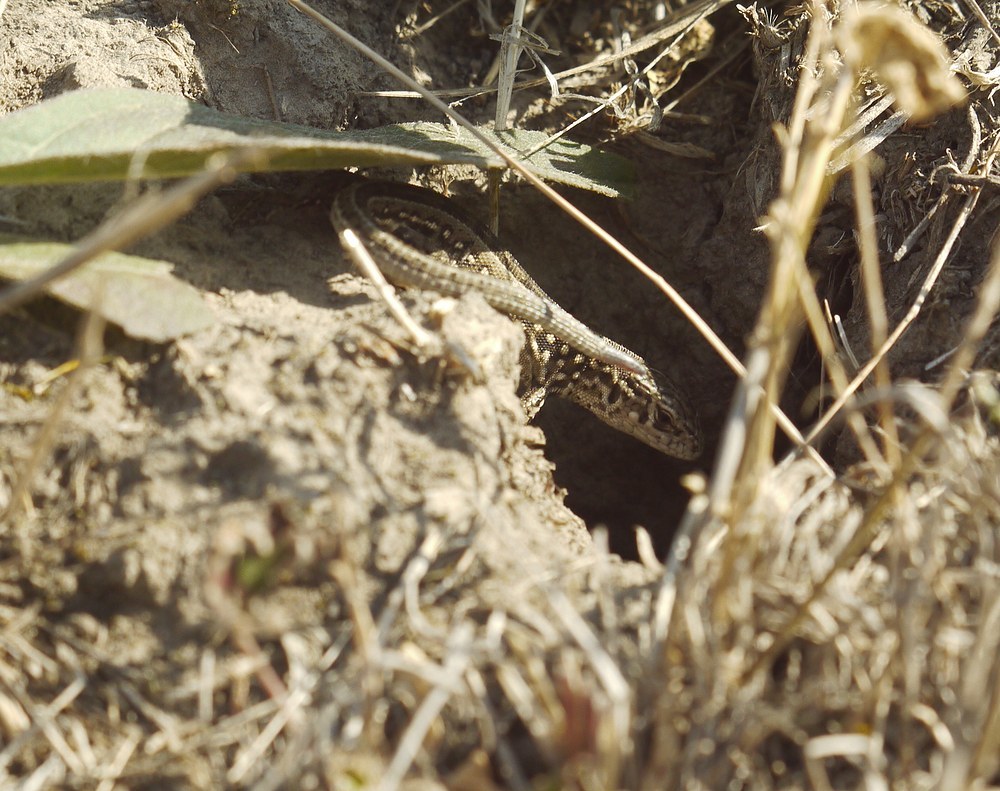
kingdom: Animalia
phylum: Chordata
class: Squamata
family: Lacertidae
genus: Lacerta
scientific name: Lacerta agilis
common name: Sand lizard
